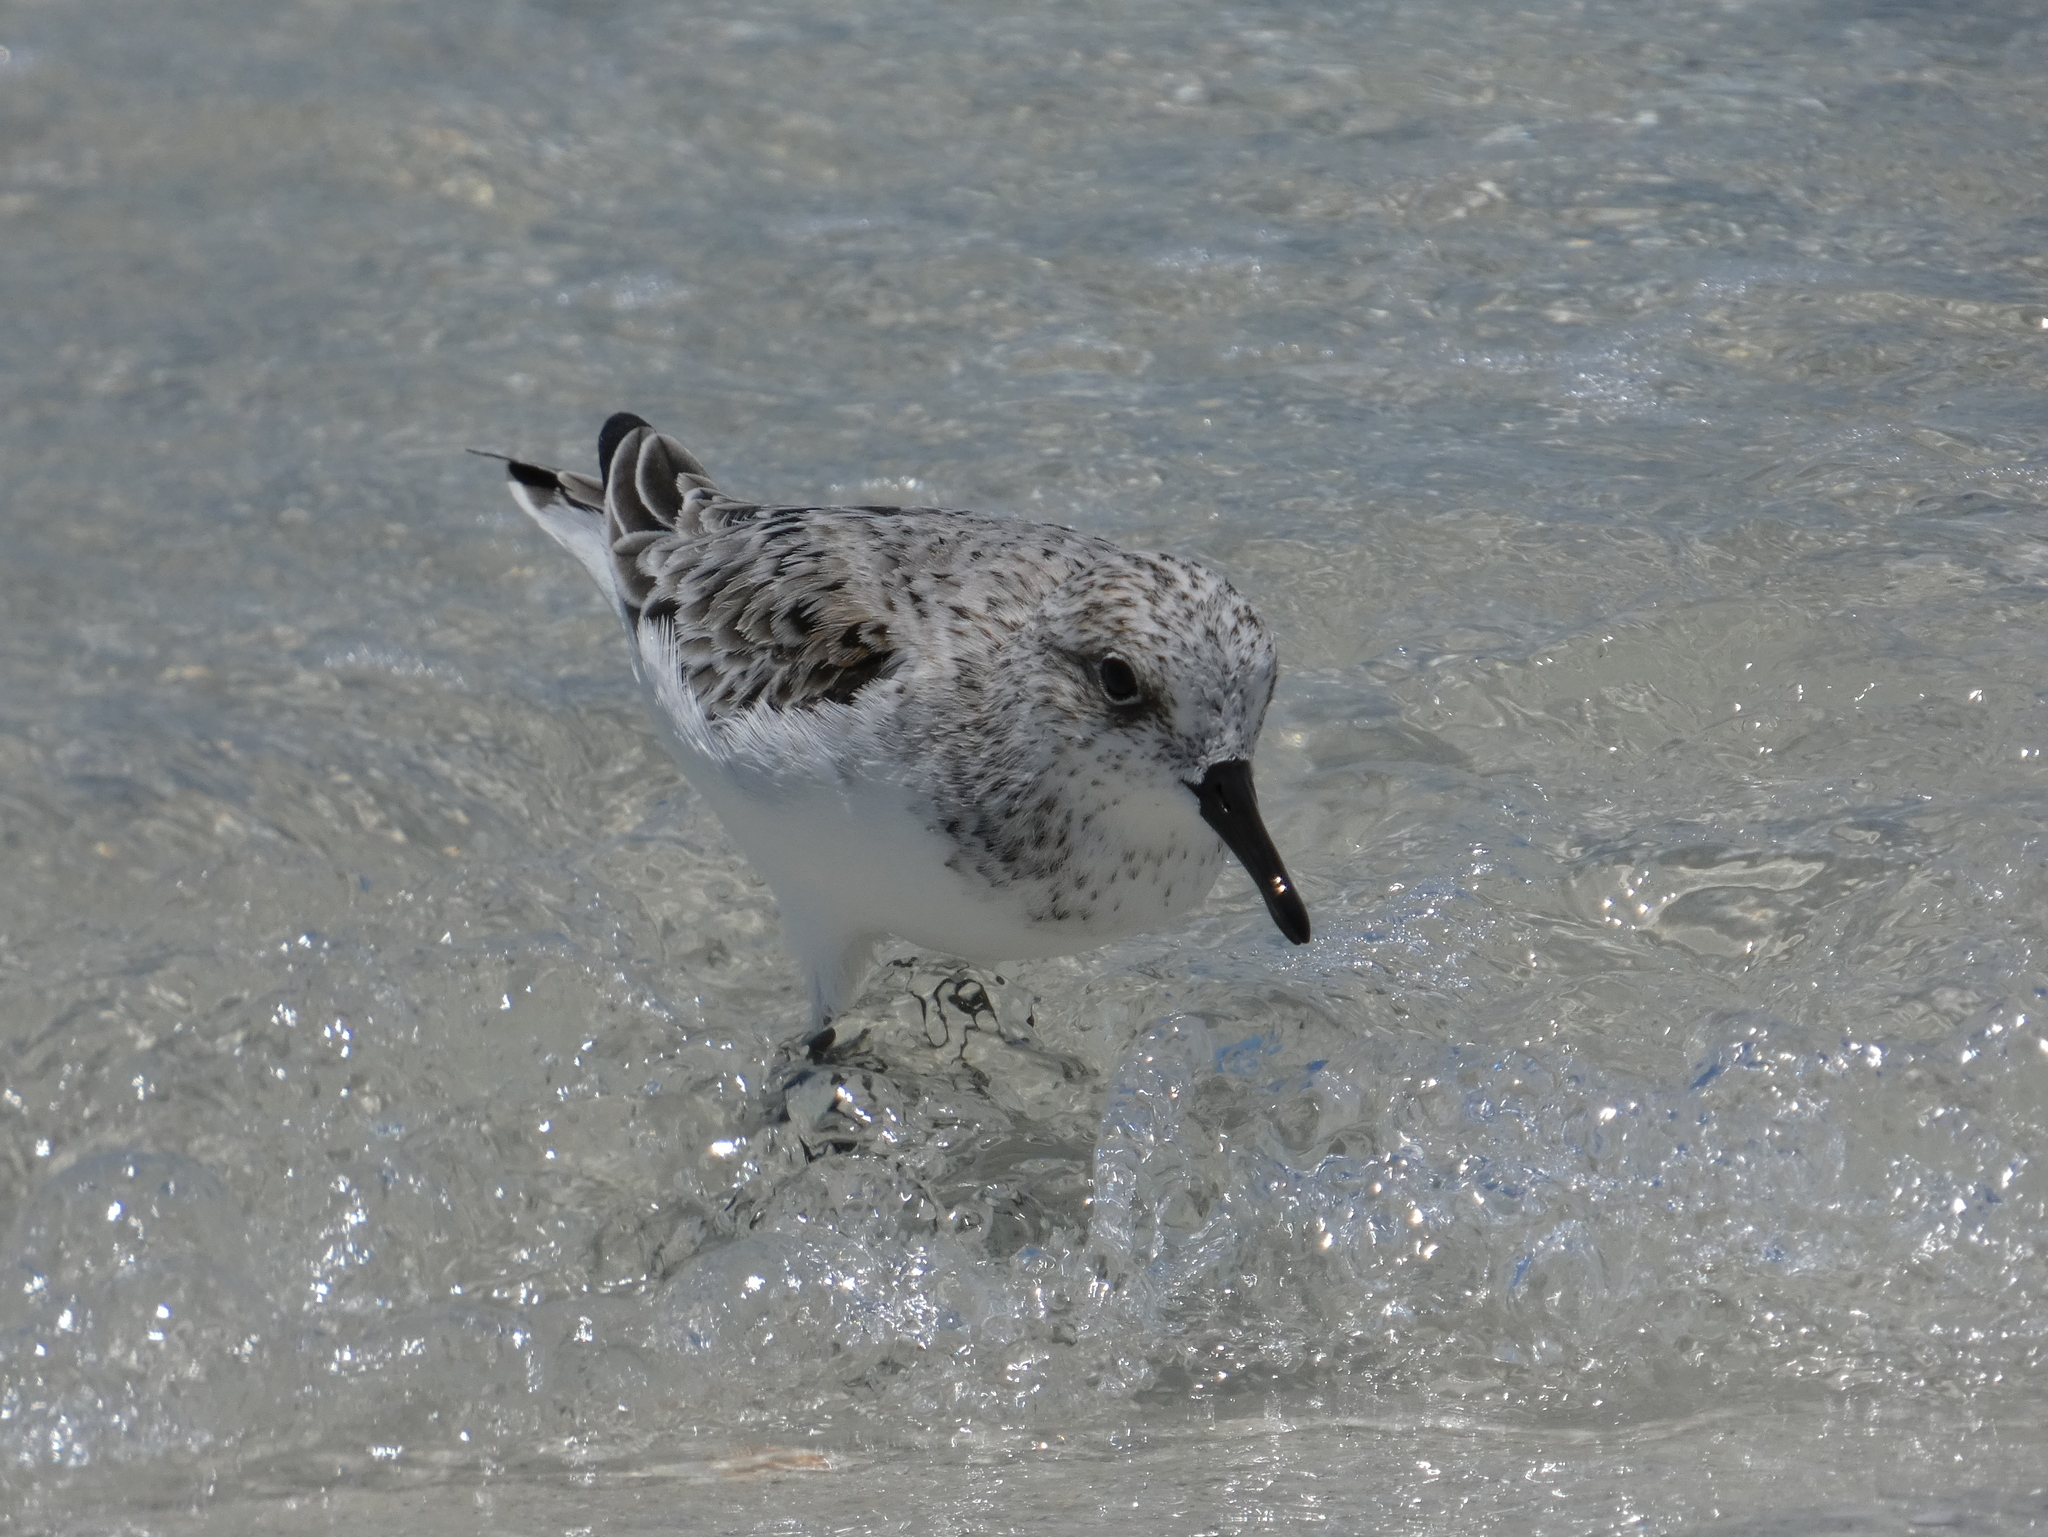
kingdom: Animalia
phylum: Chordata
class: Aves
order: Charadriiformes
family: Scolopacidae
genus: Calidris
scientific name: Calidris alba
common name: Sanderling
